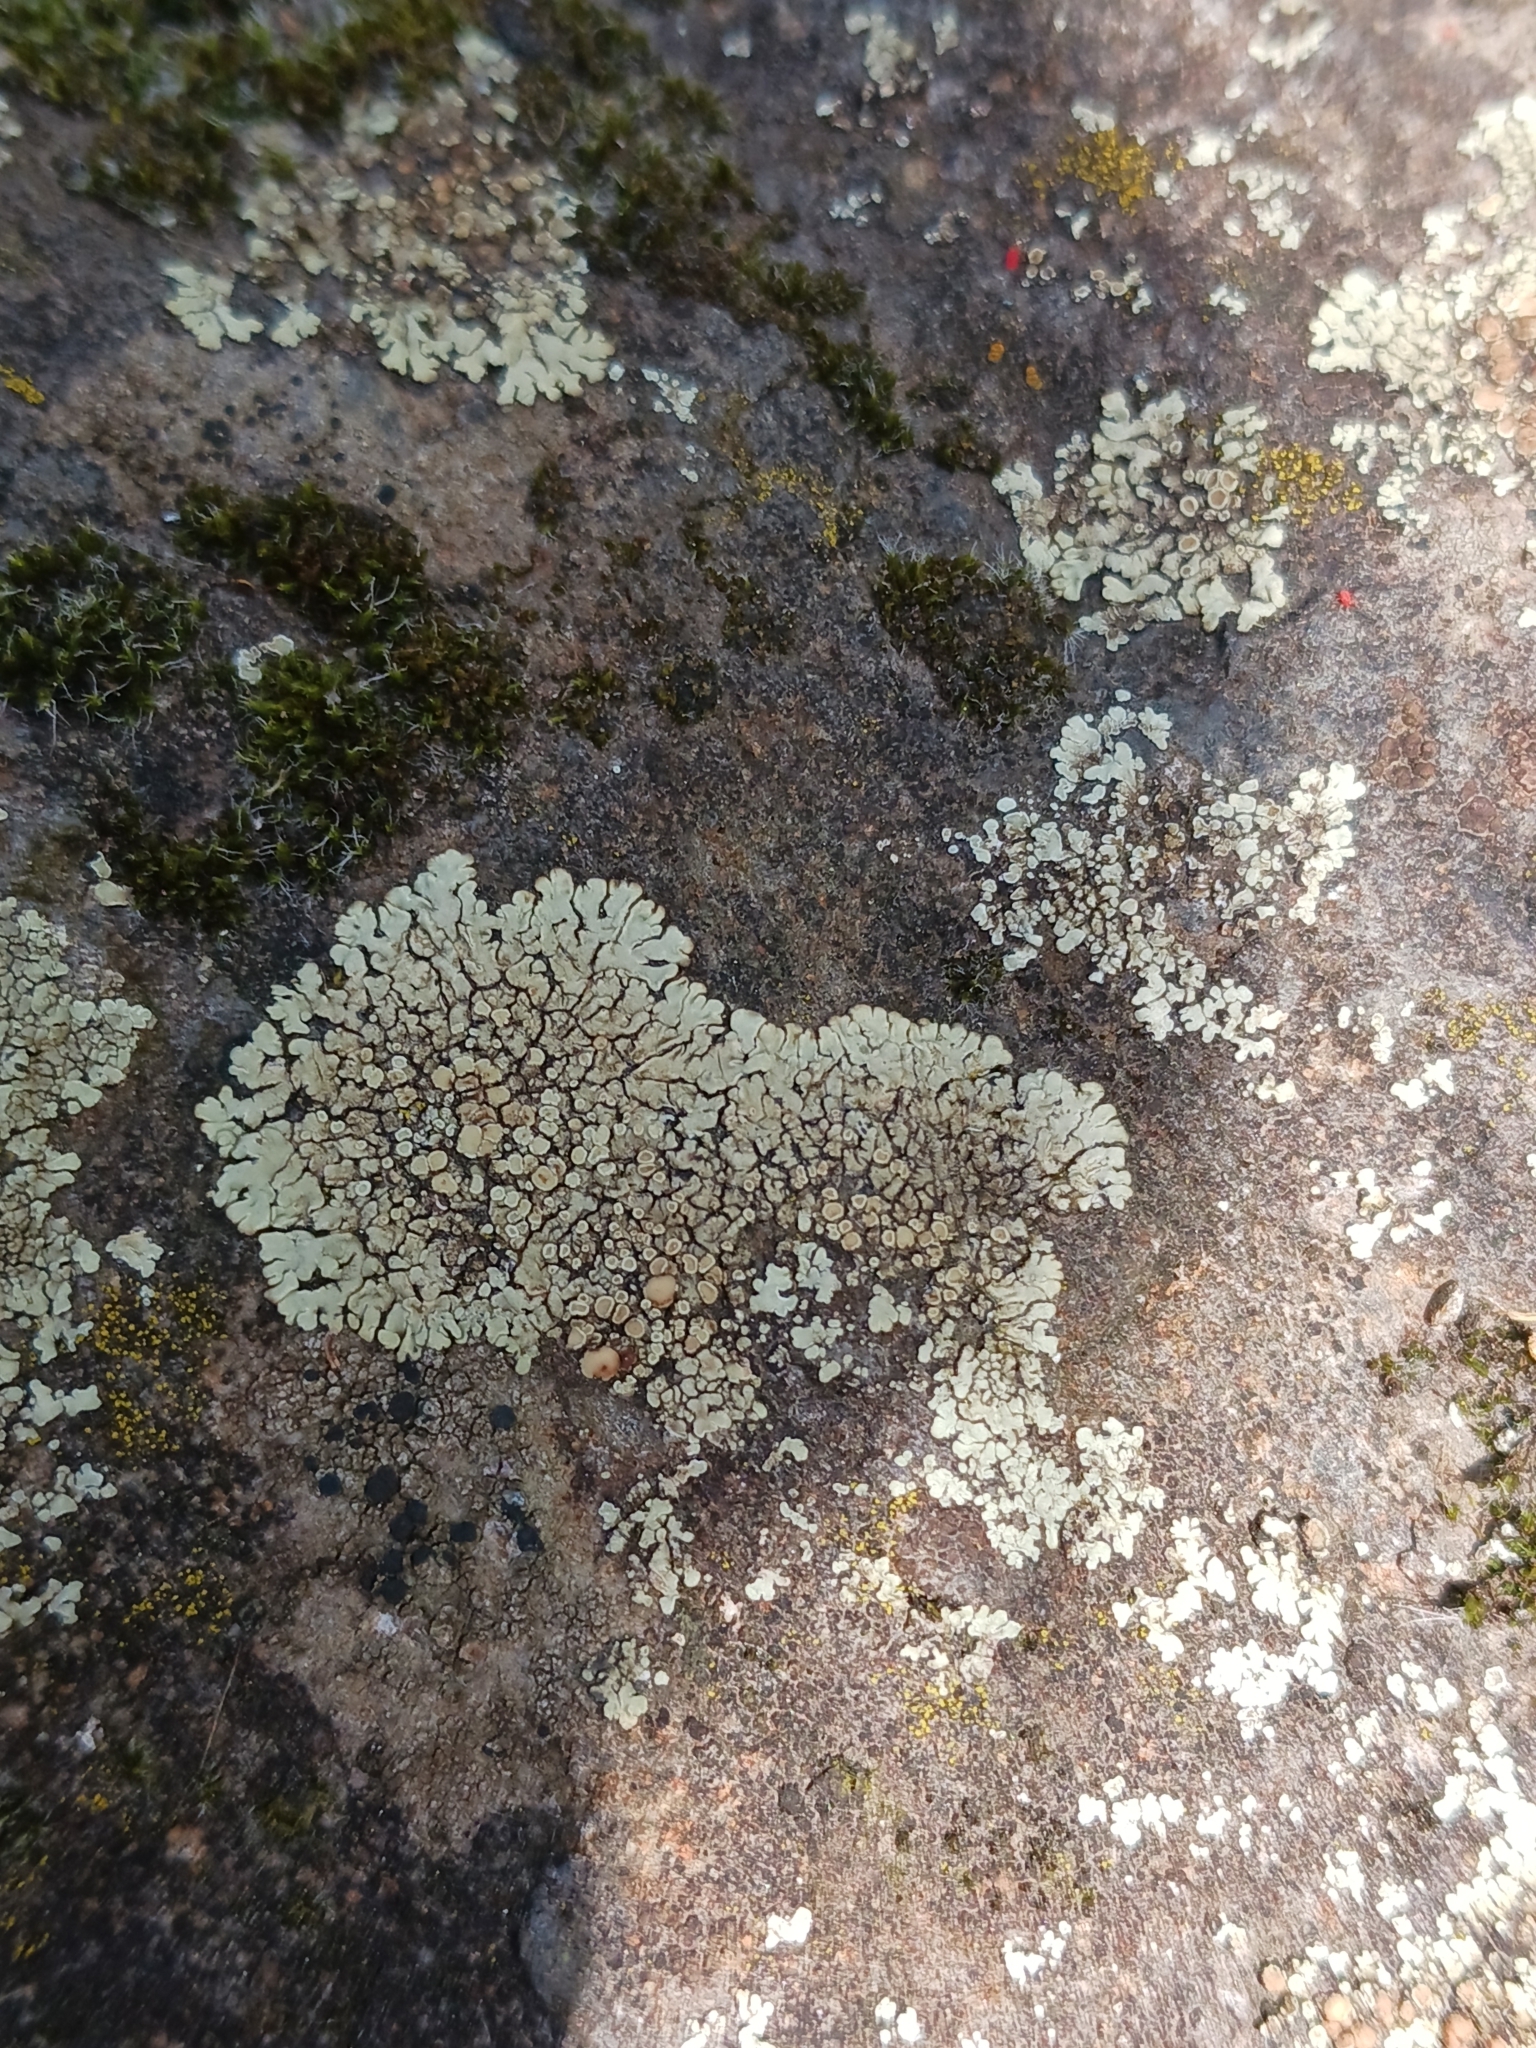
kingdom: Fungi
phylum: Ascomycota
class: Lecanoromycetes
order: Lecanorales
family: Lecanoraceae
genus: Protoparmeliopsis
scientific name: Protoparmeliopsis muralis
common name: Stonewall rim lichen
